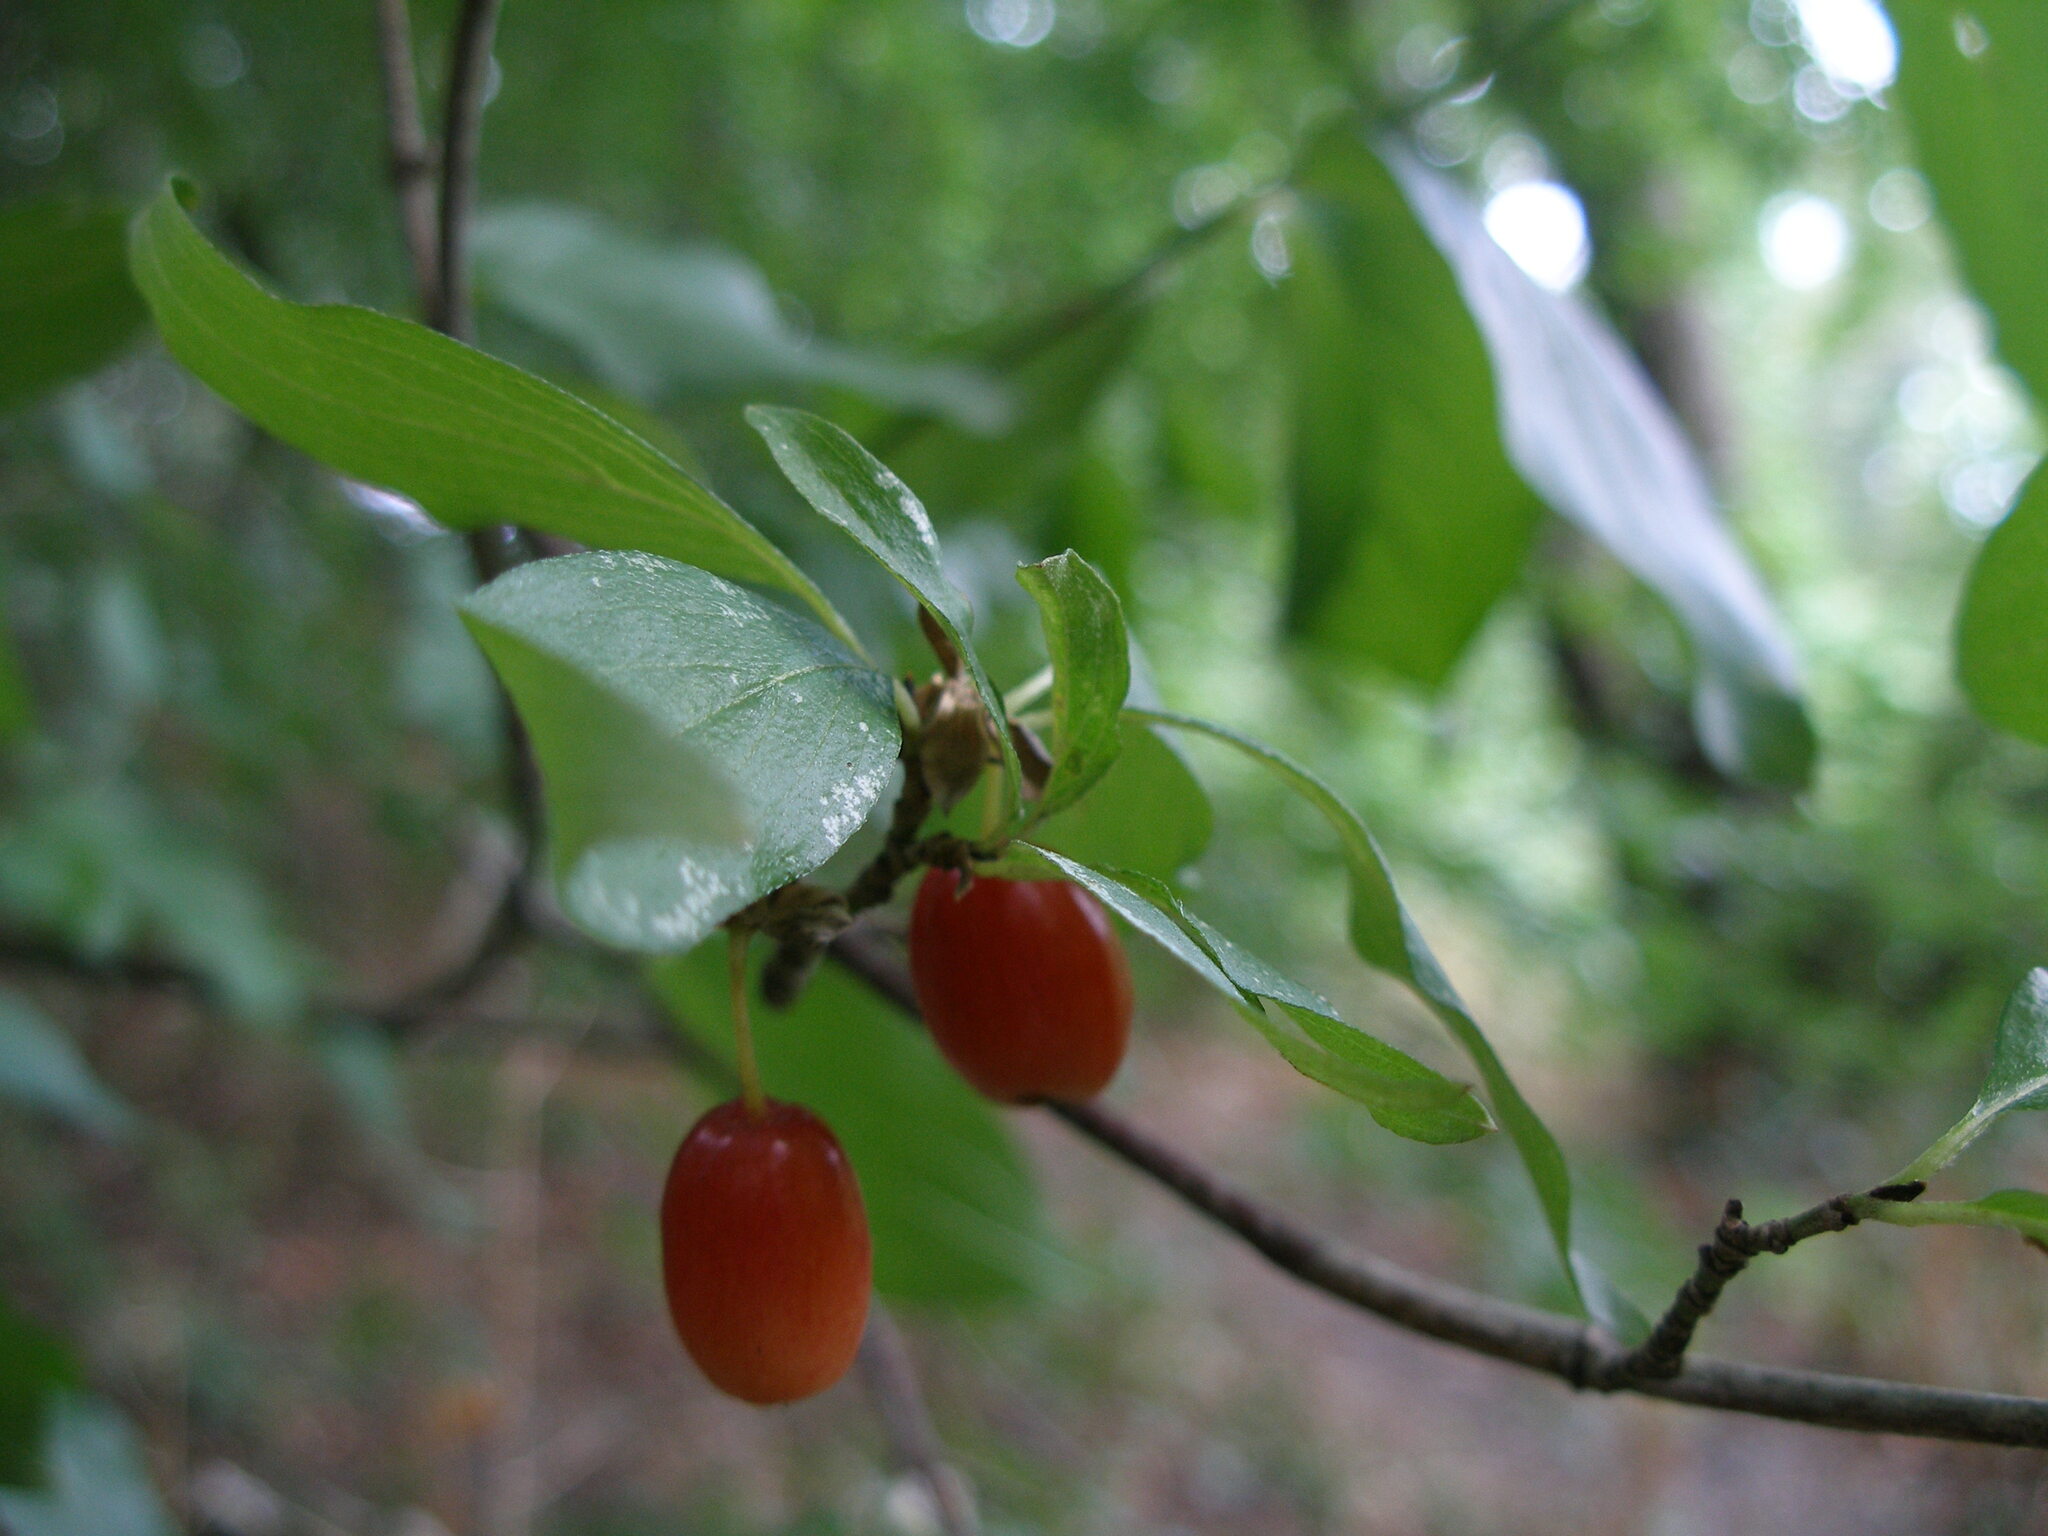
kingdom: Plantae
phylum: Tracheophyta
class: Magnoliopsida
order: Cornales
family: Cornaceae
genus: Cornus
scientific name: Cornus mas
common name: Cornelian-cherry
